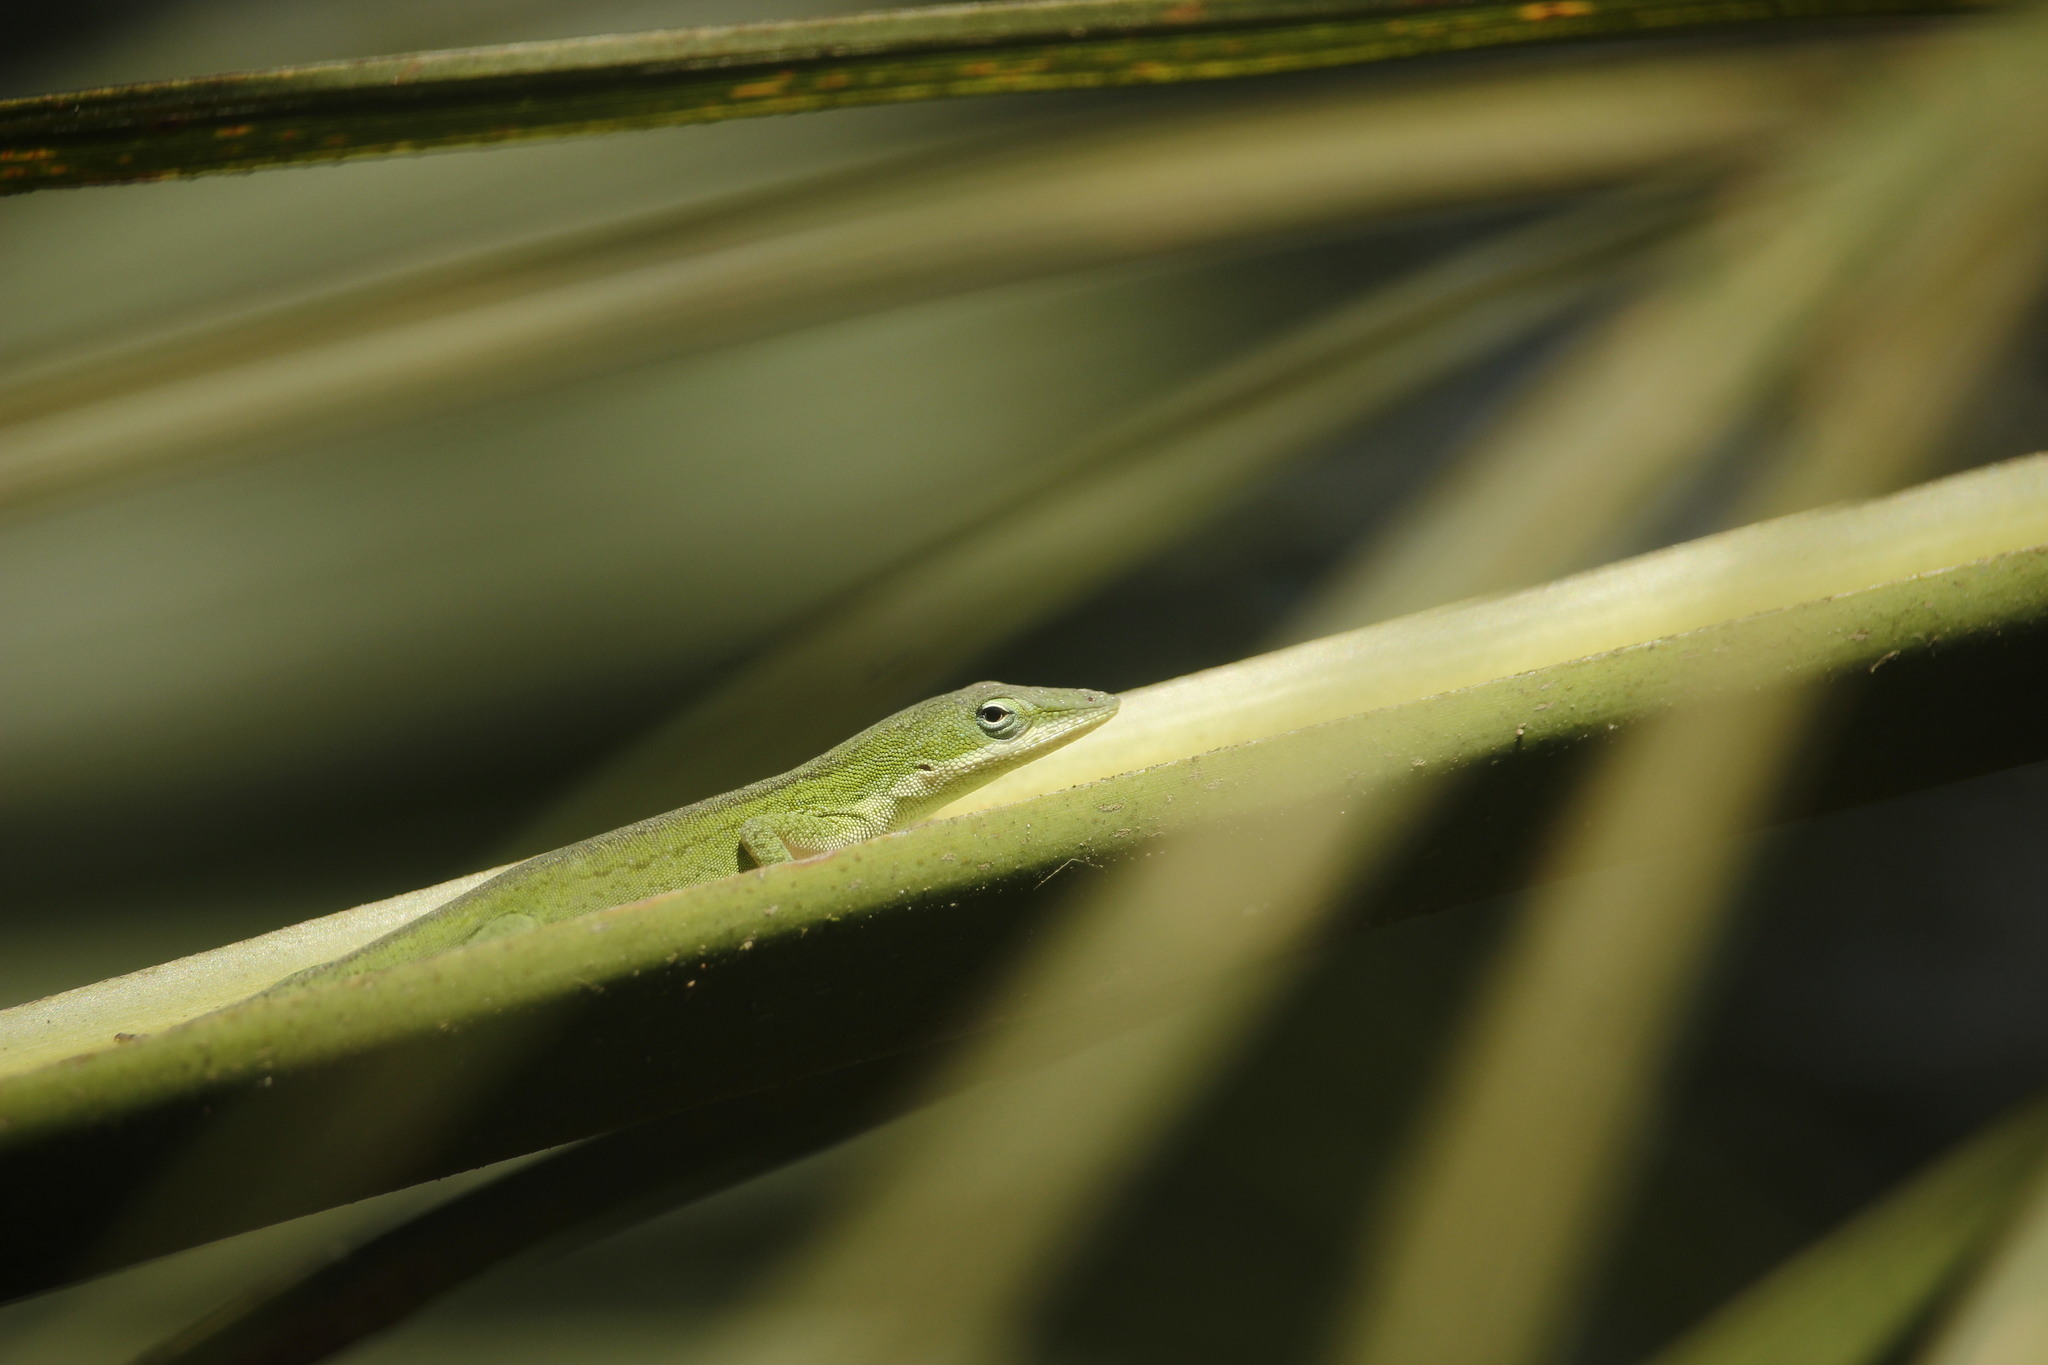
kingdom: Animalia
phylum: Chordata
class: Squamata
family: Dactyloidae
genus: Anolis
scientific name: Anolis carolinensis
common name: Green anole
